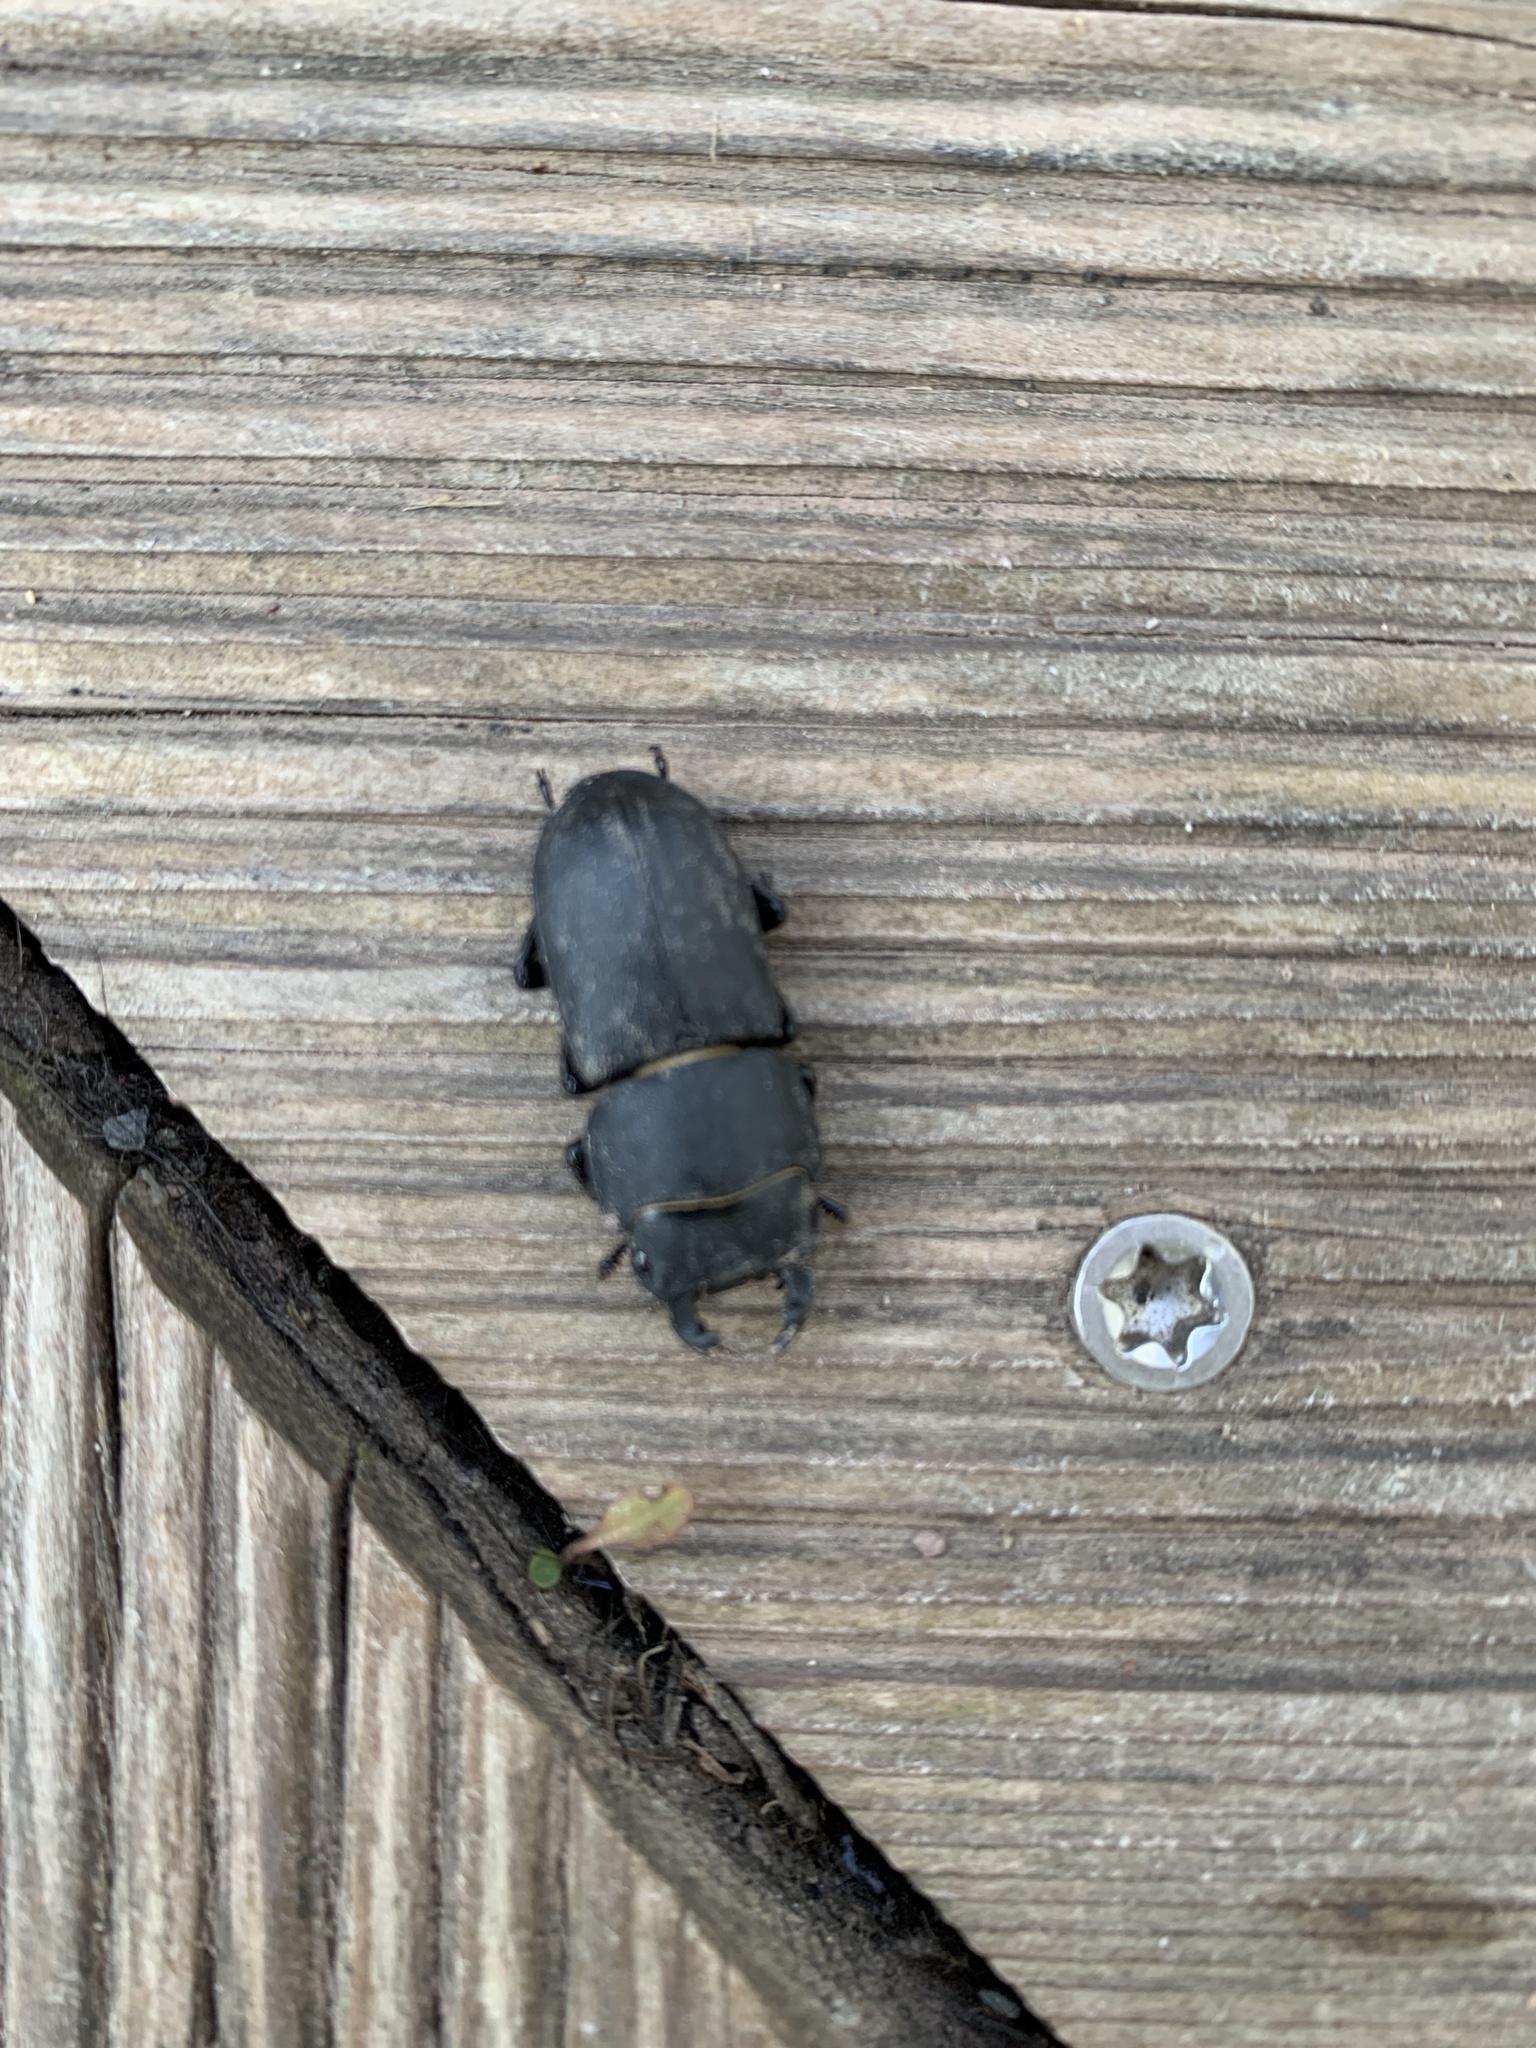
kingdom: Animalia
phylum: Arthropoda
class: Insecta
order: Coleoptera
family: Lucanidae
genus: Dorcus
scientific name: Dorcus parallelipipedus
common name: Lesser stag beetle
